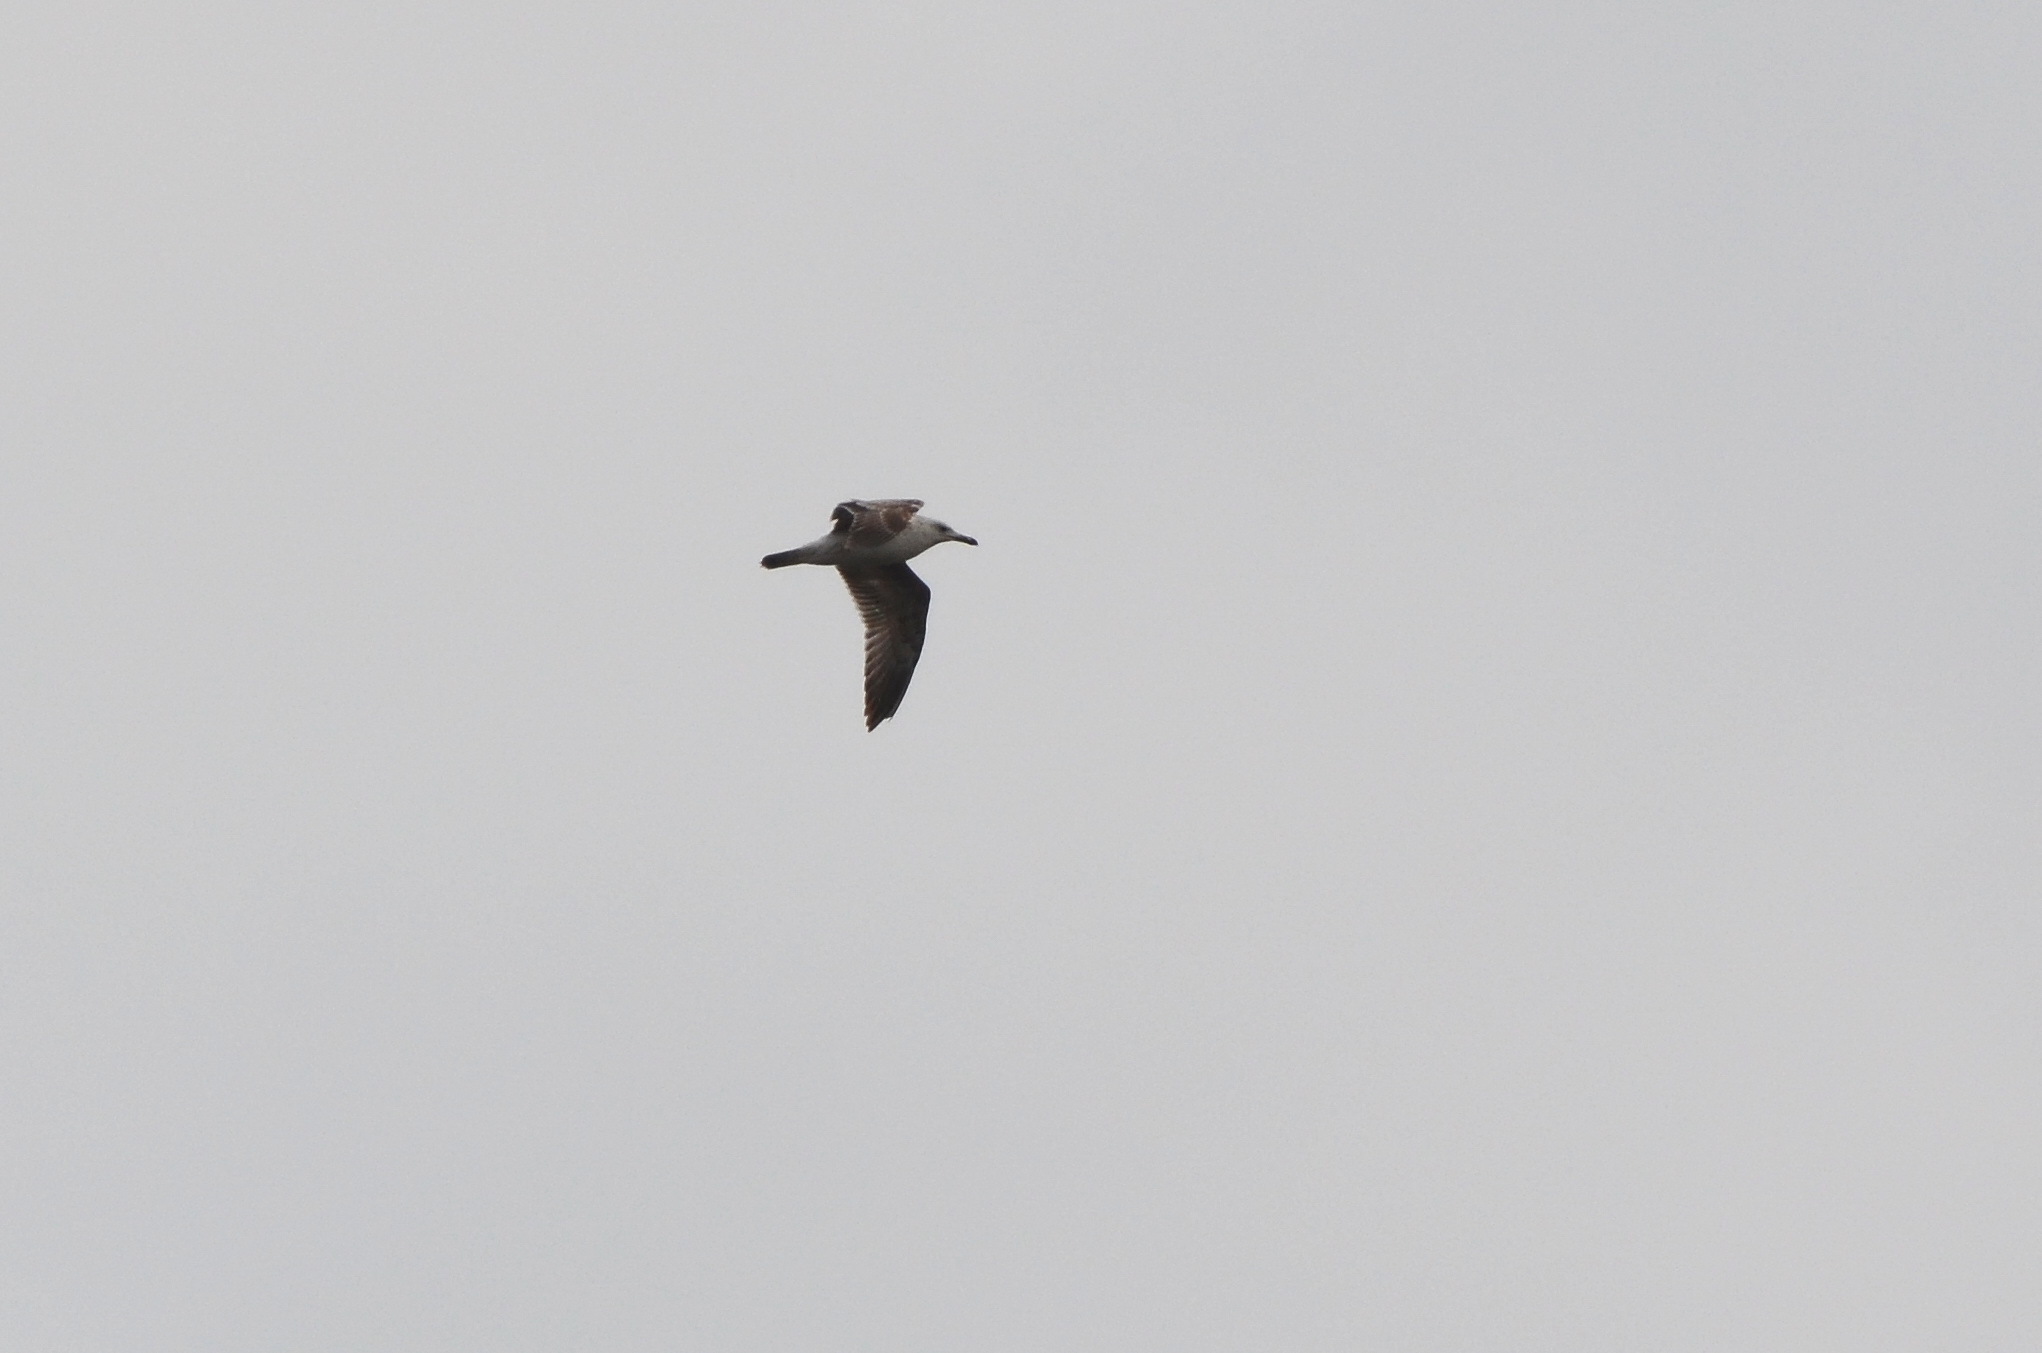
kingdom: Animalia
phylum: Chordata
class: Aves
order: Charadriiformes
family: Laridae
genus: Larus
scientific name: Larus cachinnans
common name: Caspian gull
